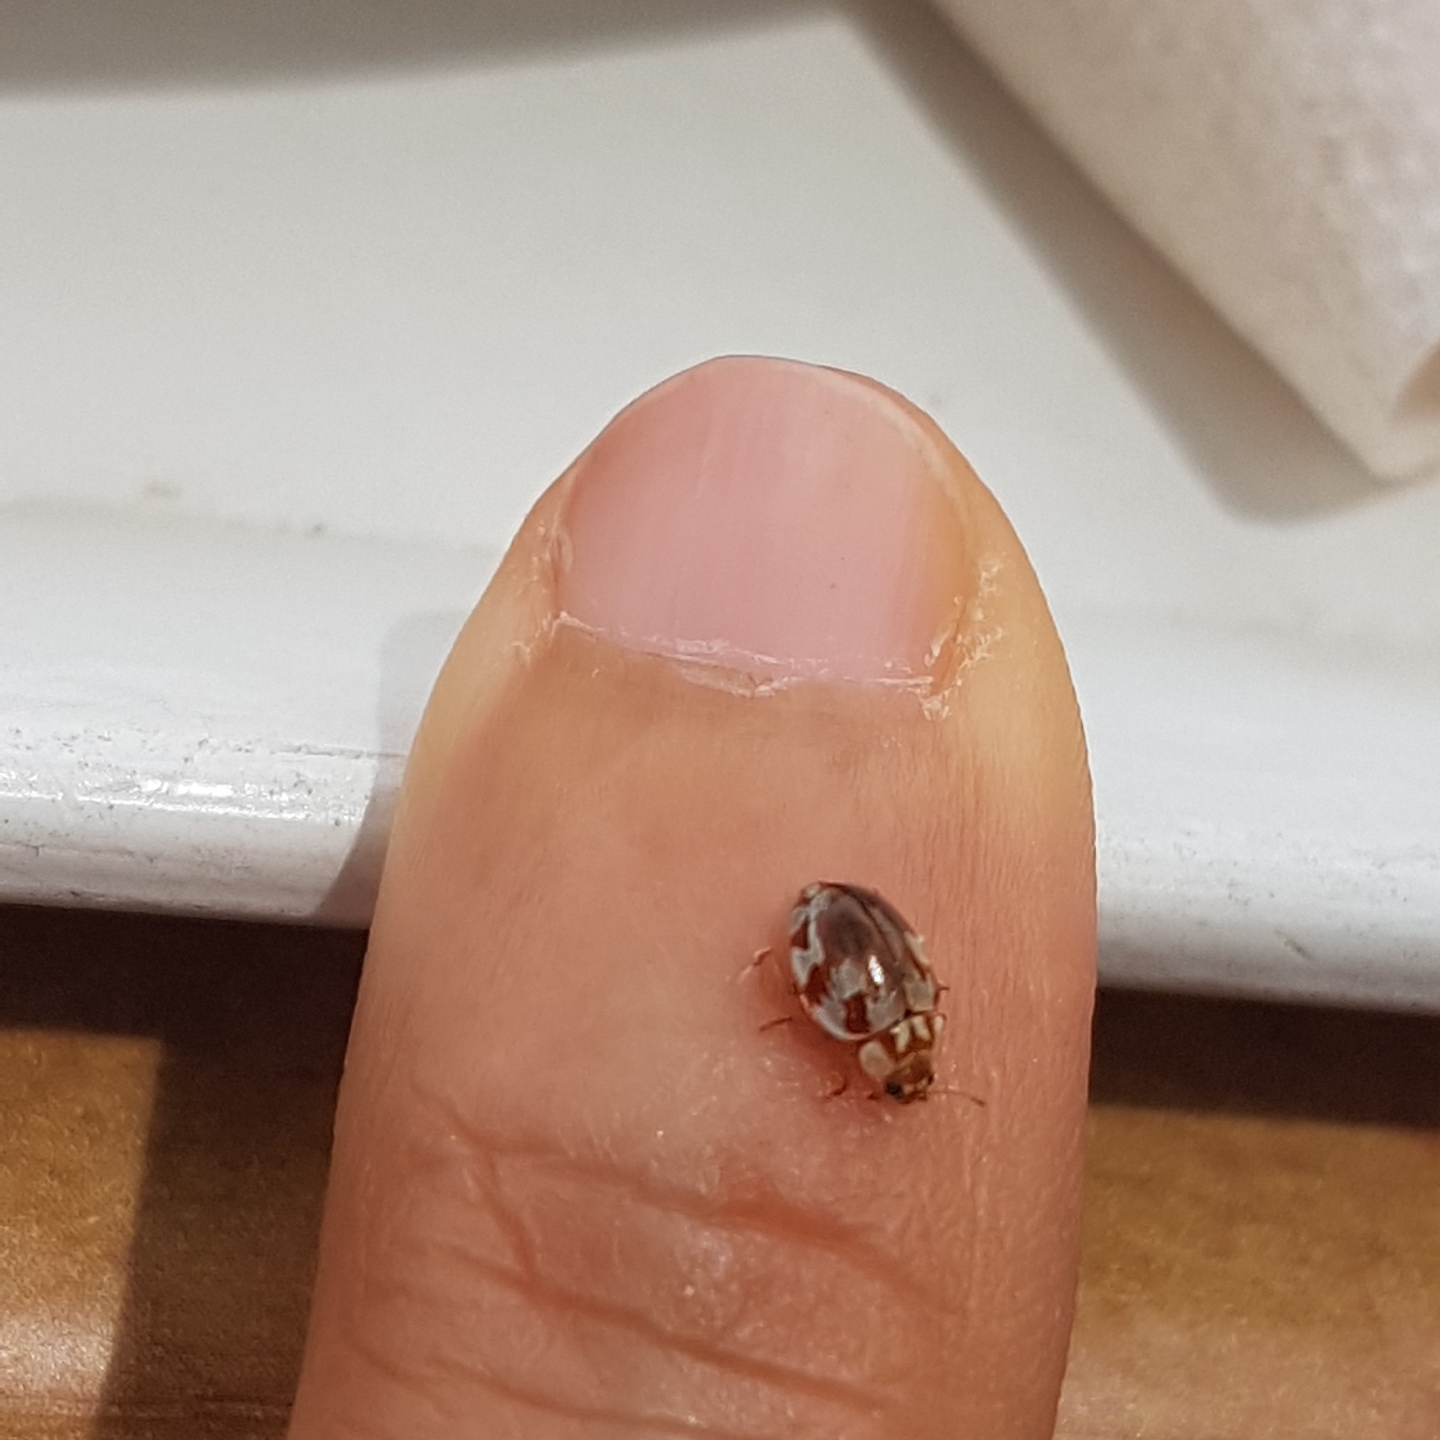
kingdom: Animalia
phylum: Arthropoda
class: Insecta
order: Coleoptera
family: Coccinellidae
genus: Myrrha
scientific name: Myrrha octodecimguttata
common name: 18-spot ladybird
